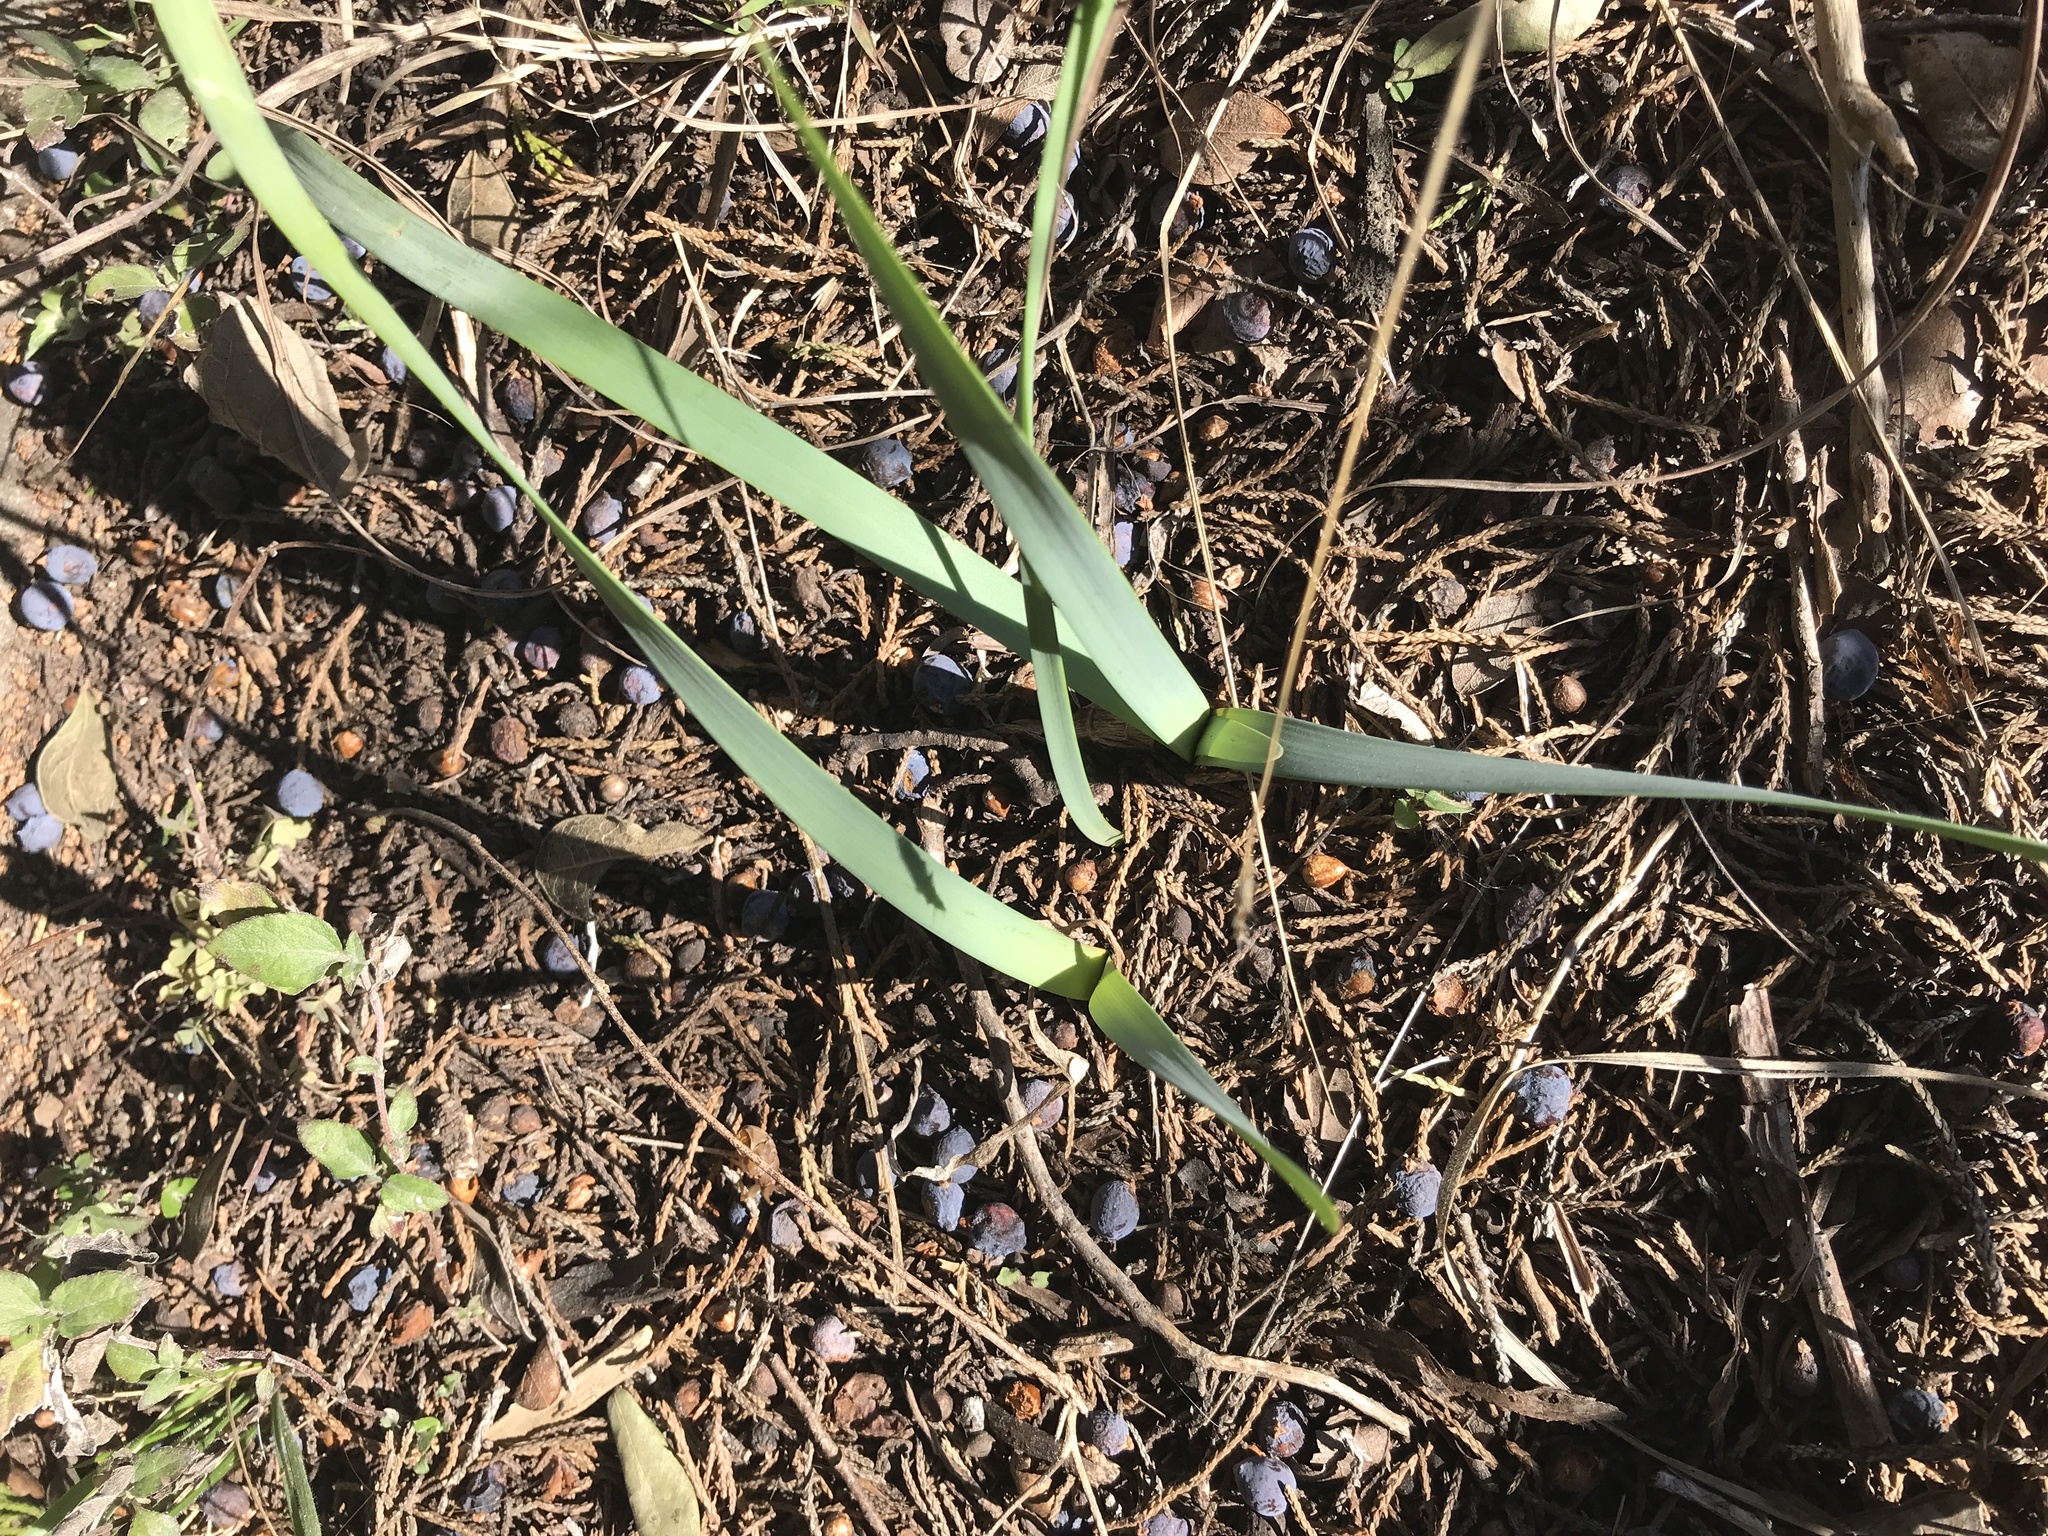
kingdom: Plantae
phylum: Tracheophyta
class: Liliopsida
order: Asparagales
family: Amaryllidaceae
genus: Zephyranthes
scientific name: Zephyranthes drummondii
